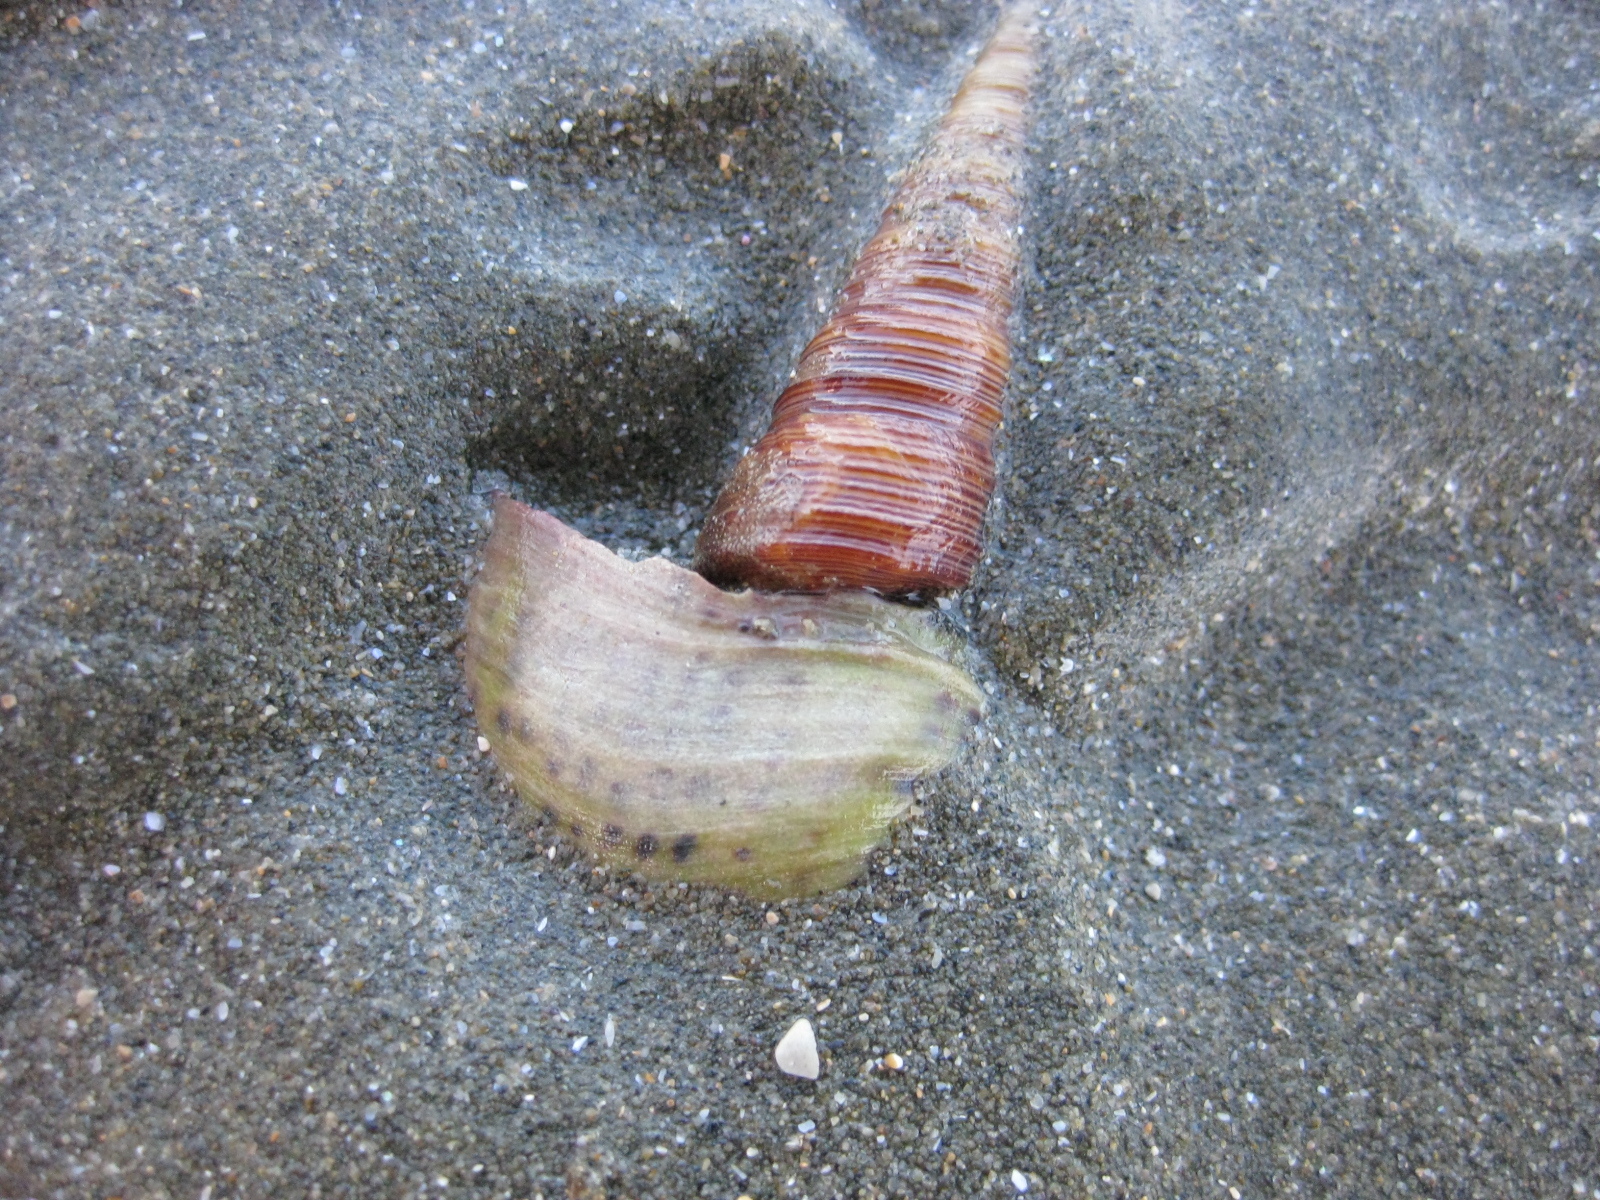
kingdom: Animalia
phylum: Mollusca
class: Gastropoda
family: Turritellidae
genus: Maoricolpus
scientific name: Maoricolpus roseus
